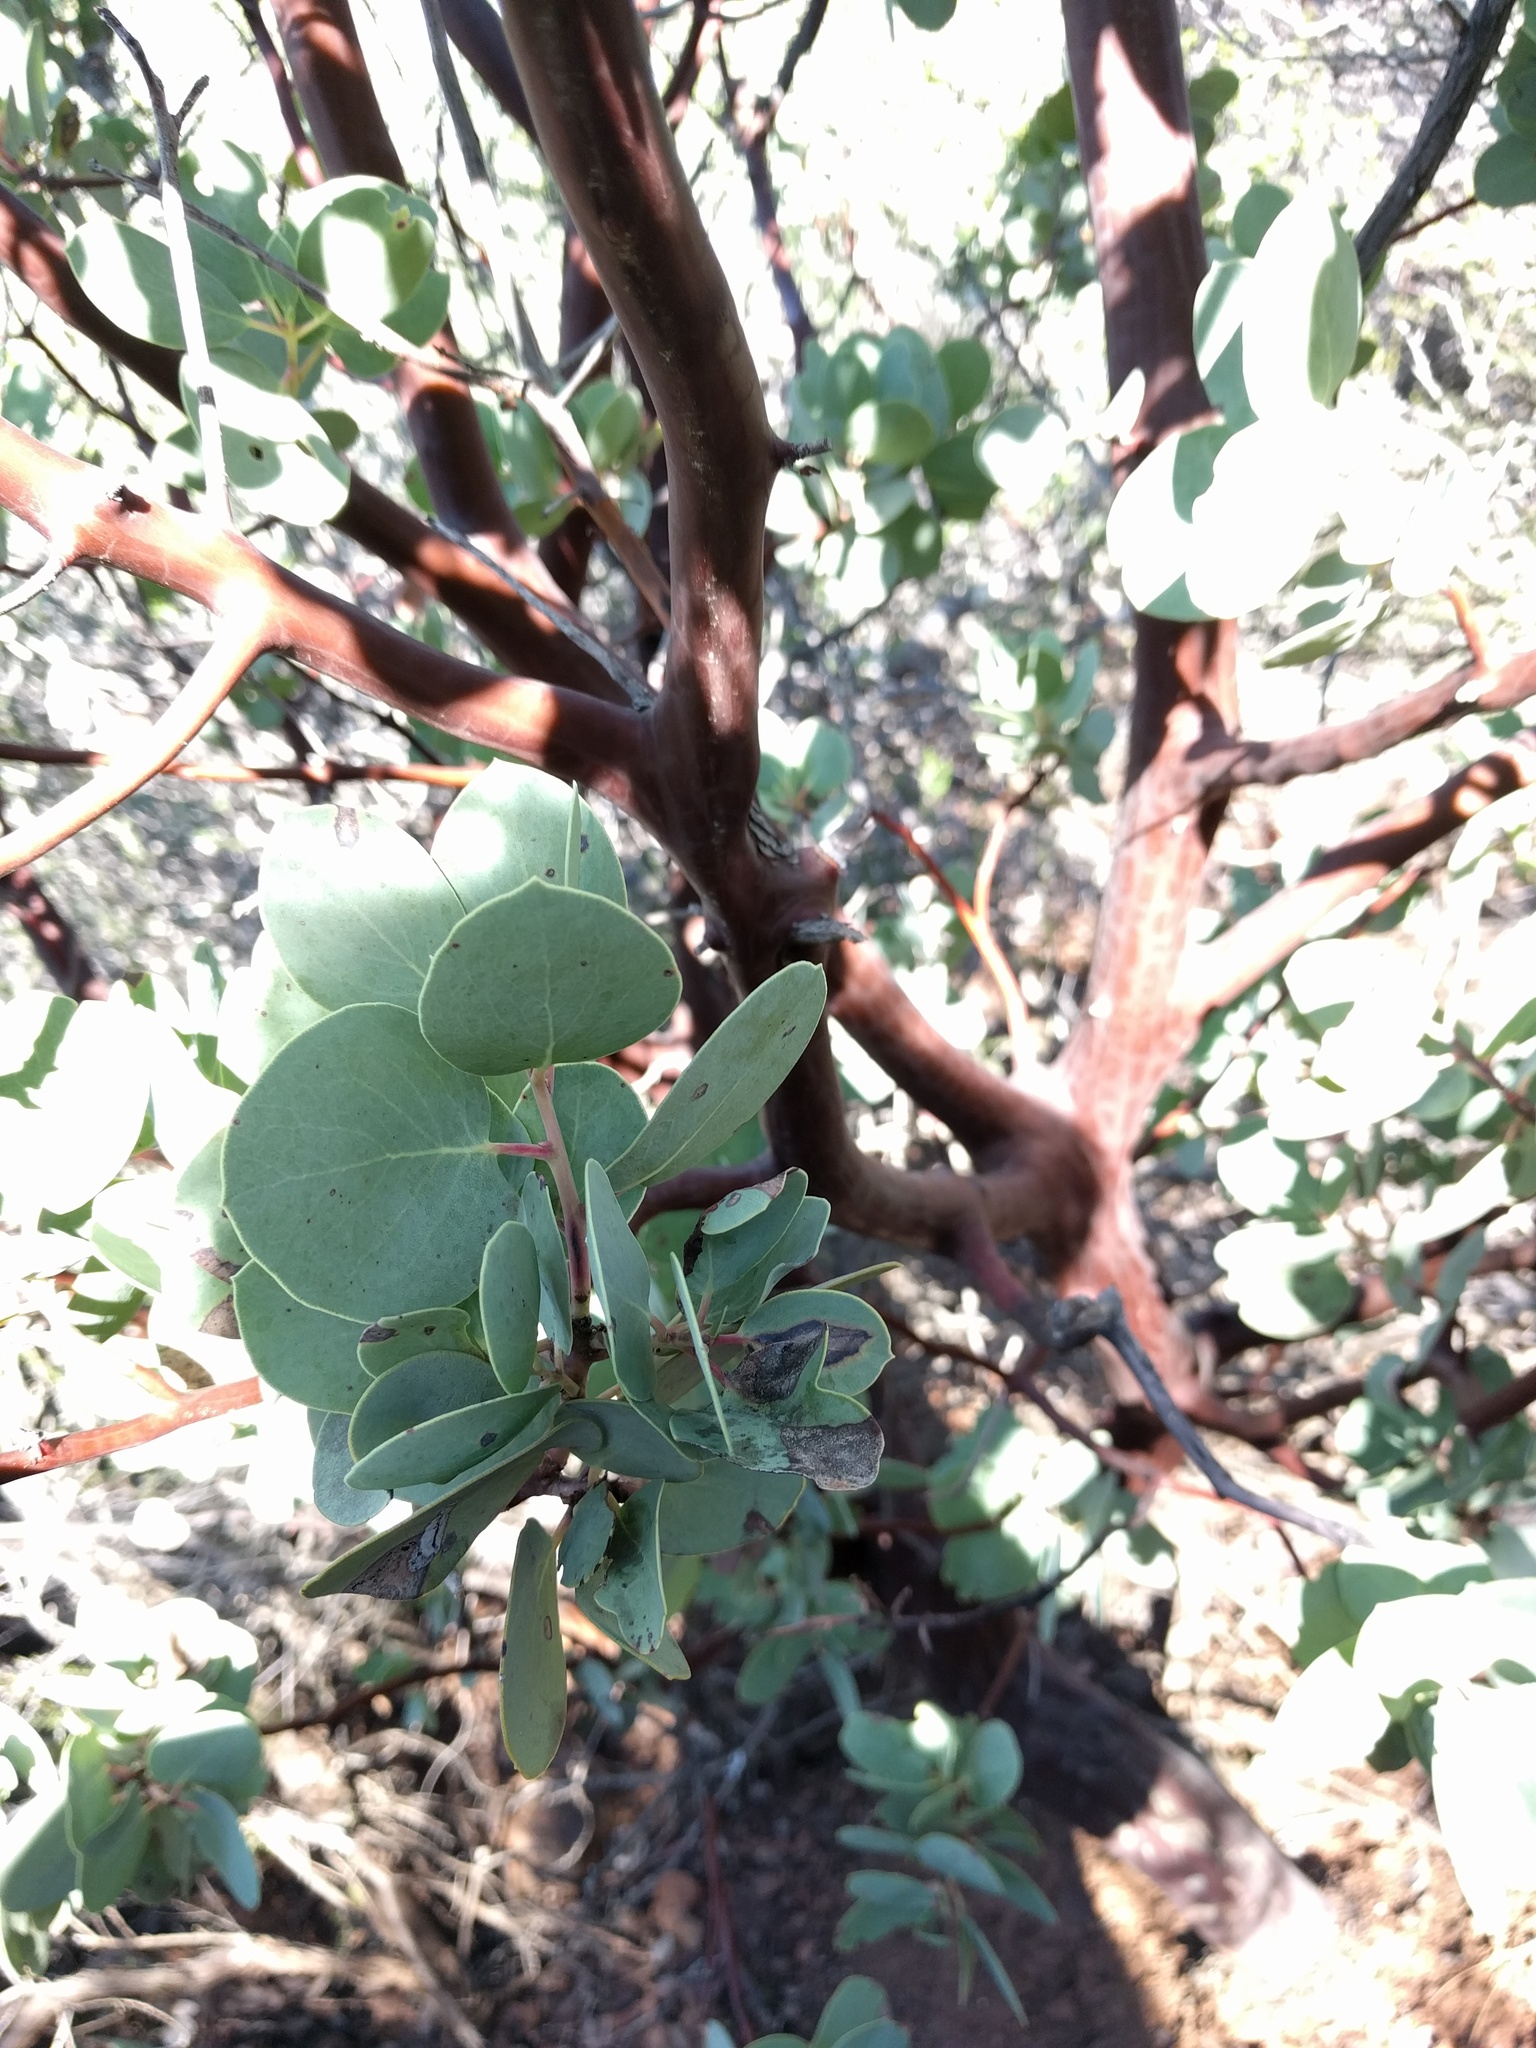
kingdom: Plantae
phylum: Tracheophyta
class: Magnoliopsida
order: Ericales
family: Ericaceae
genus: Arctostaphylos
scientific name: Arctostaphylos glauca
